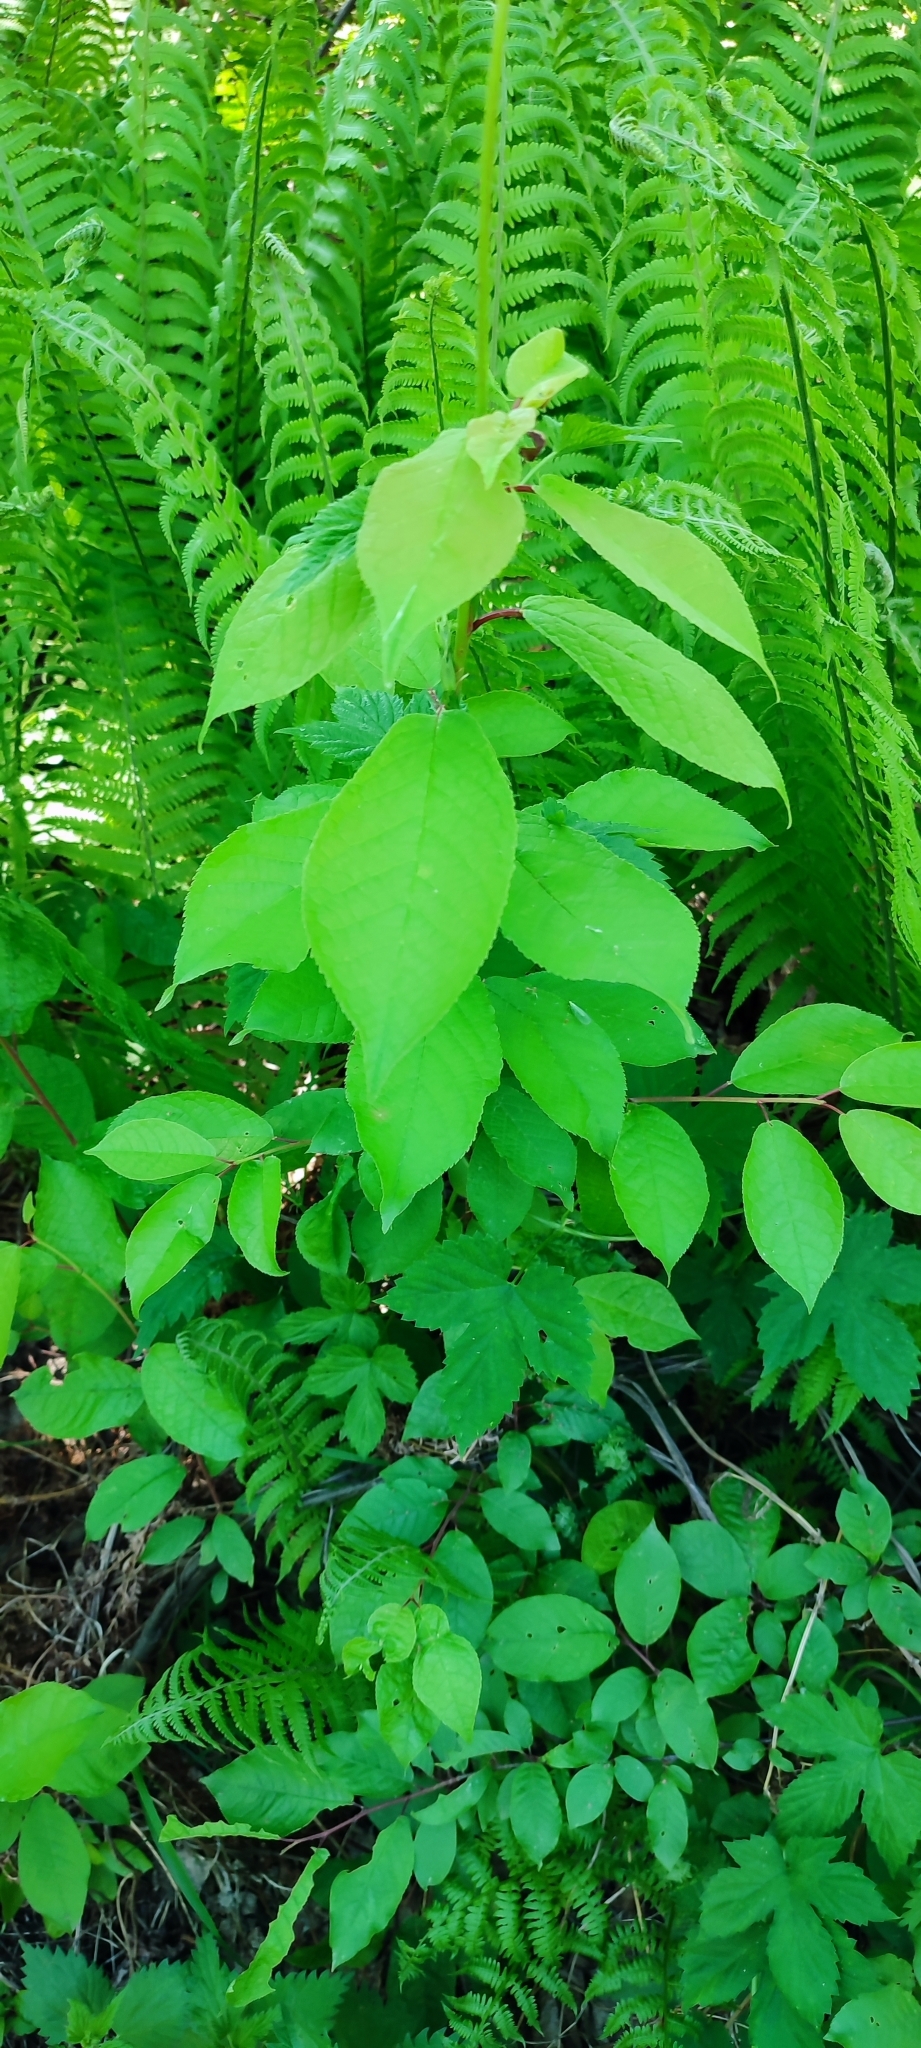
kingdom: Plantae
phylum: Tracheophyta
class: Magnoliopsida
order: Rosales
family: Rosaceae
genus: Prunus
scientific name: Prunus padus
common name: Bird cherry
